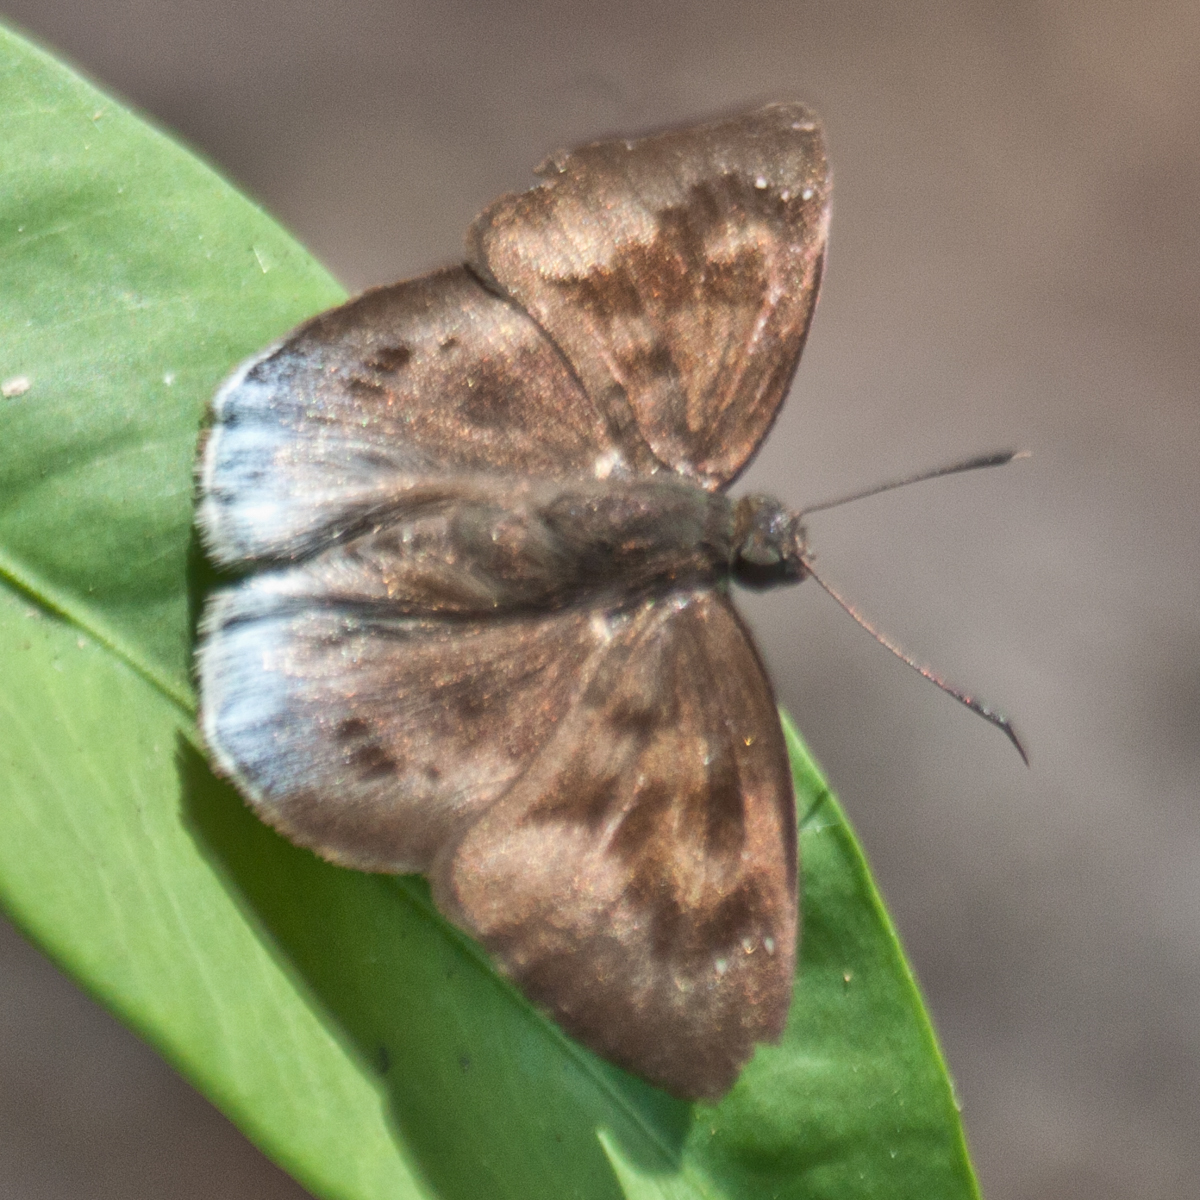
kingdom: Animalia
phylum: Arthropoda
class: Insecta
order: Lepidoptera
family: Hesperiidae
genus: Tagiades
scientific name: Tagiades gana
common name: Suffused snow flat
